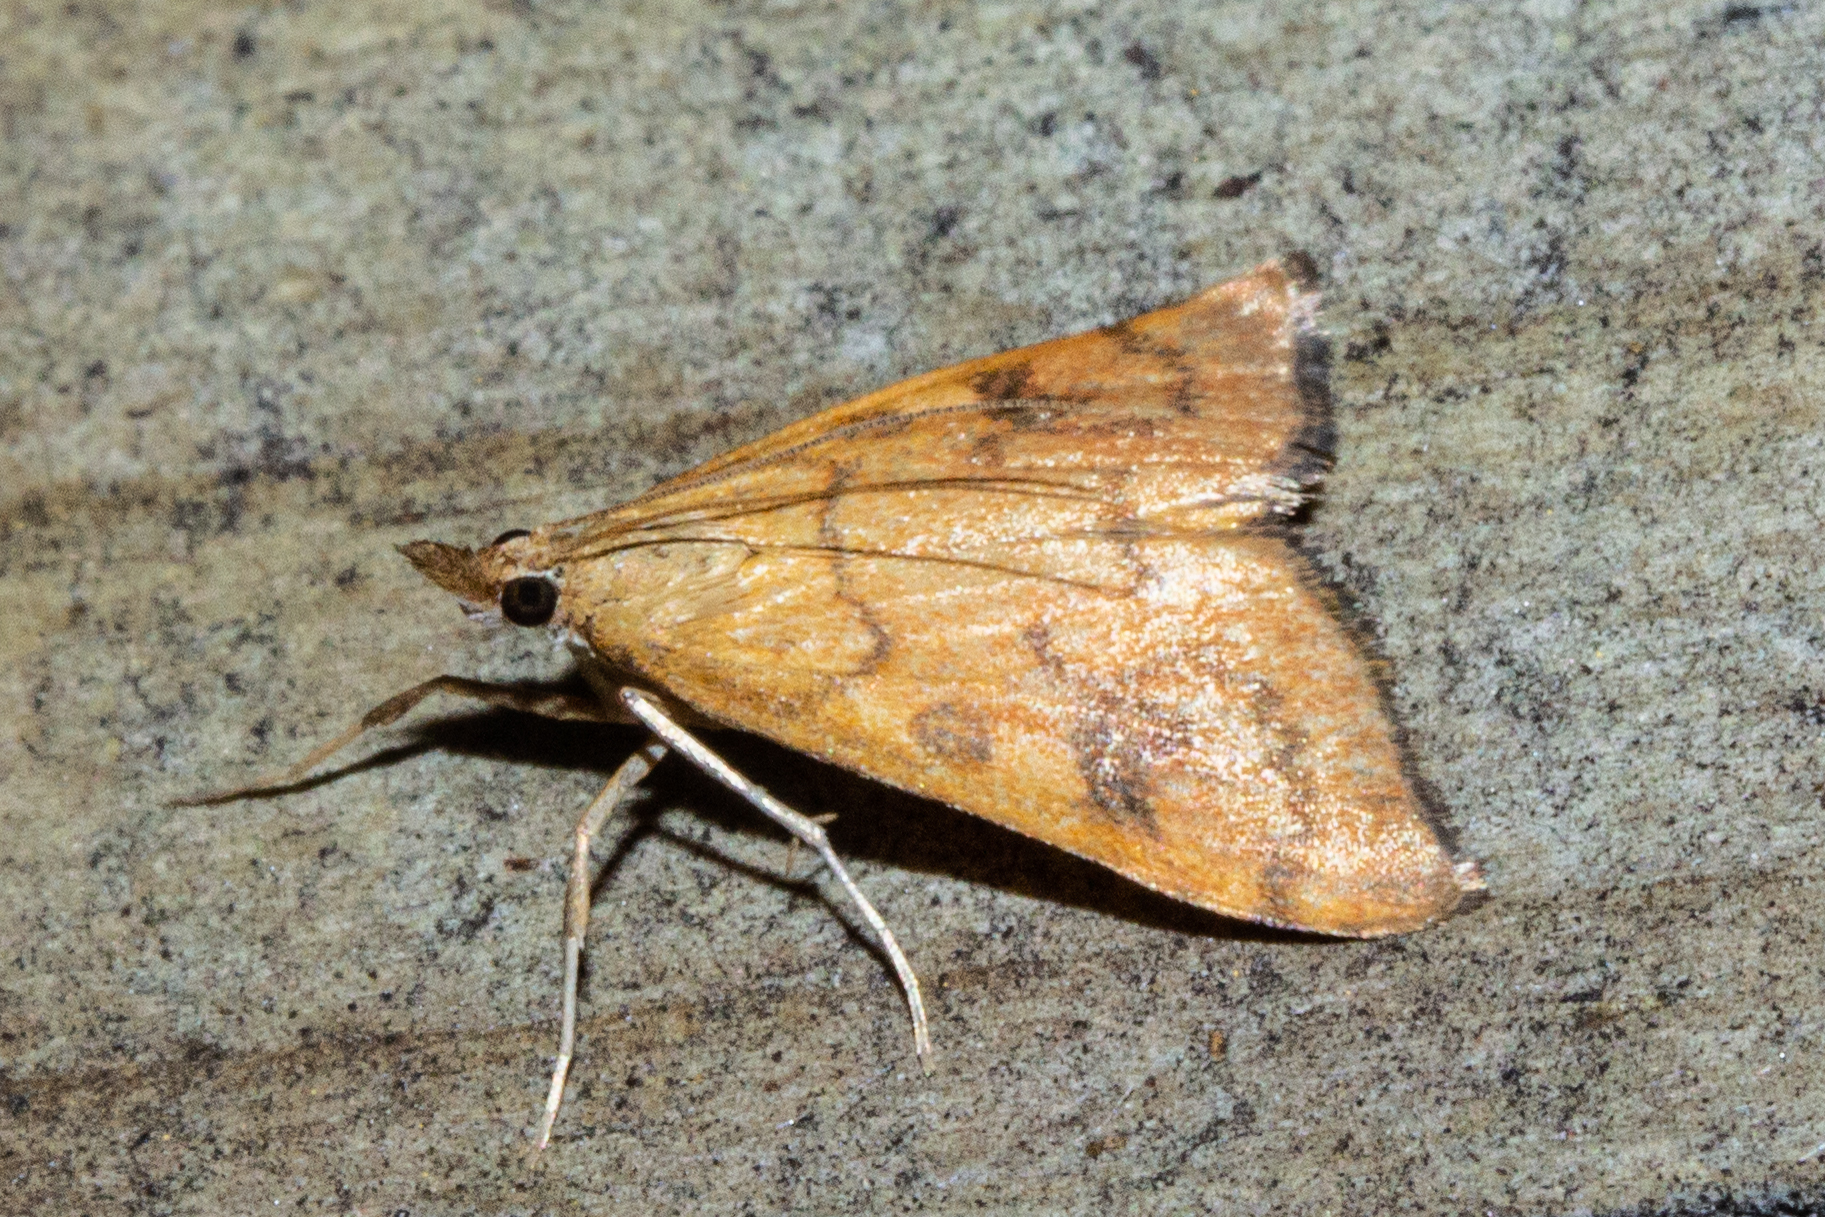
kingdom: Animalia
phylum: Arthropoda
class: Insecta
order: Lepidoptera
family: Crambidae
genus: Udea
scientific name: Udea Mnesictena flavidalis
